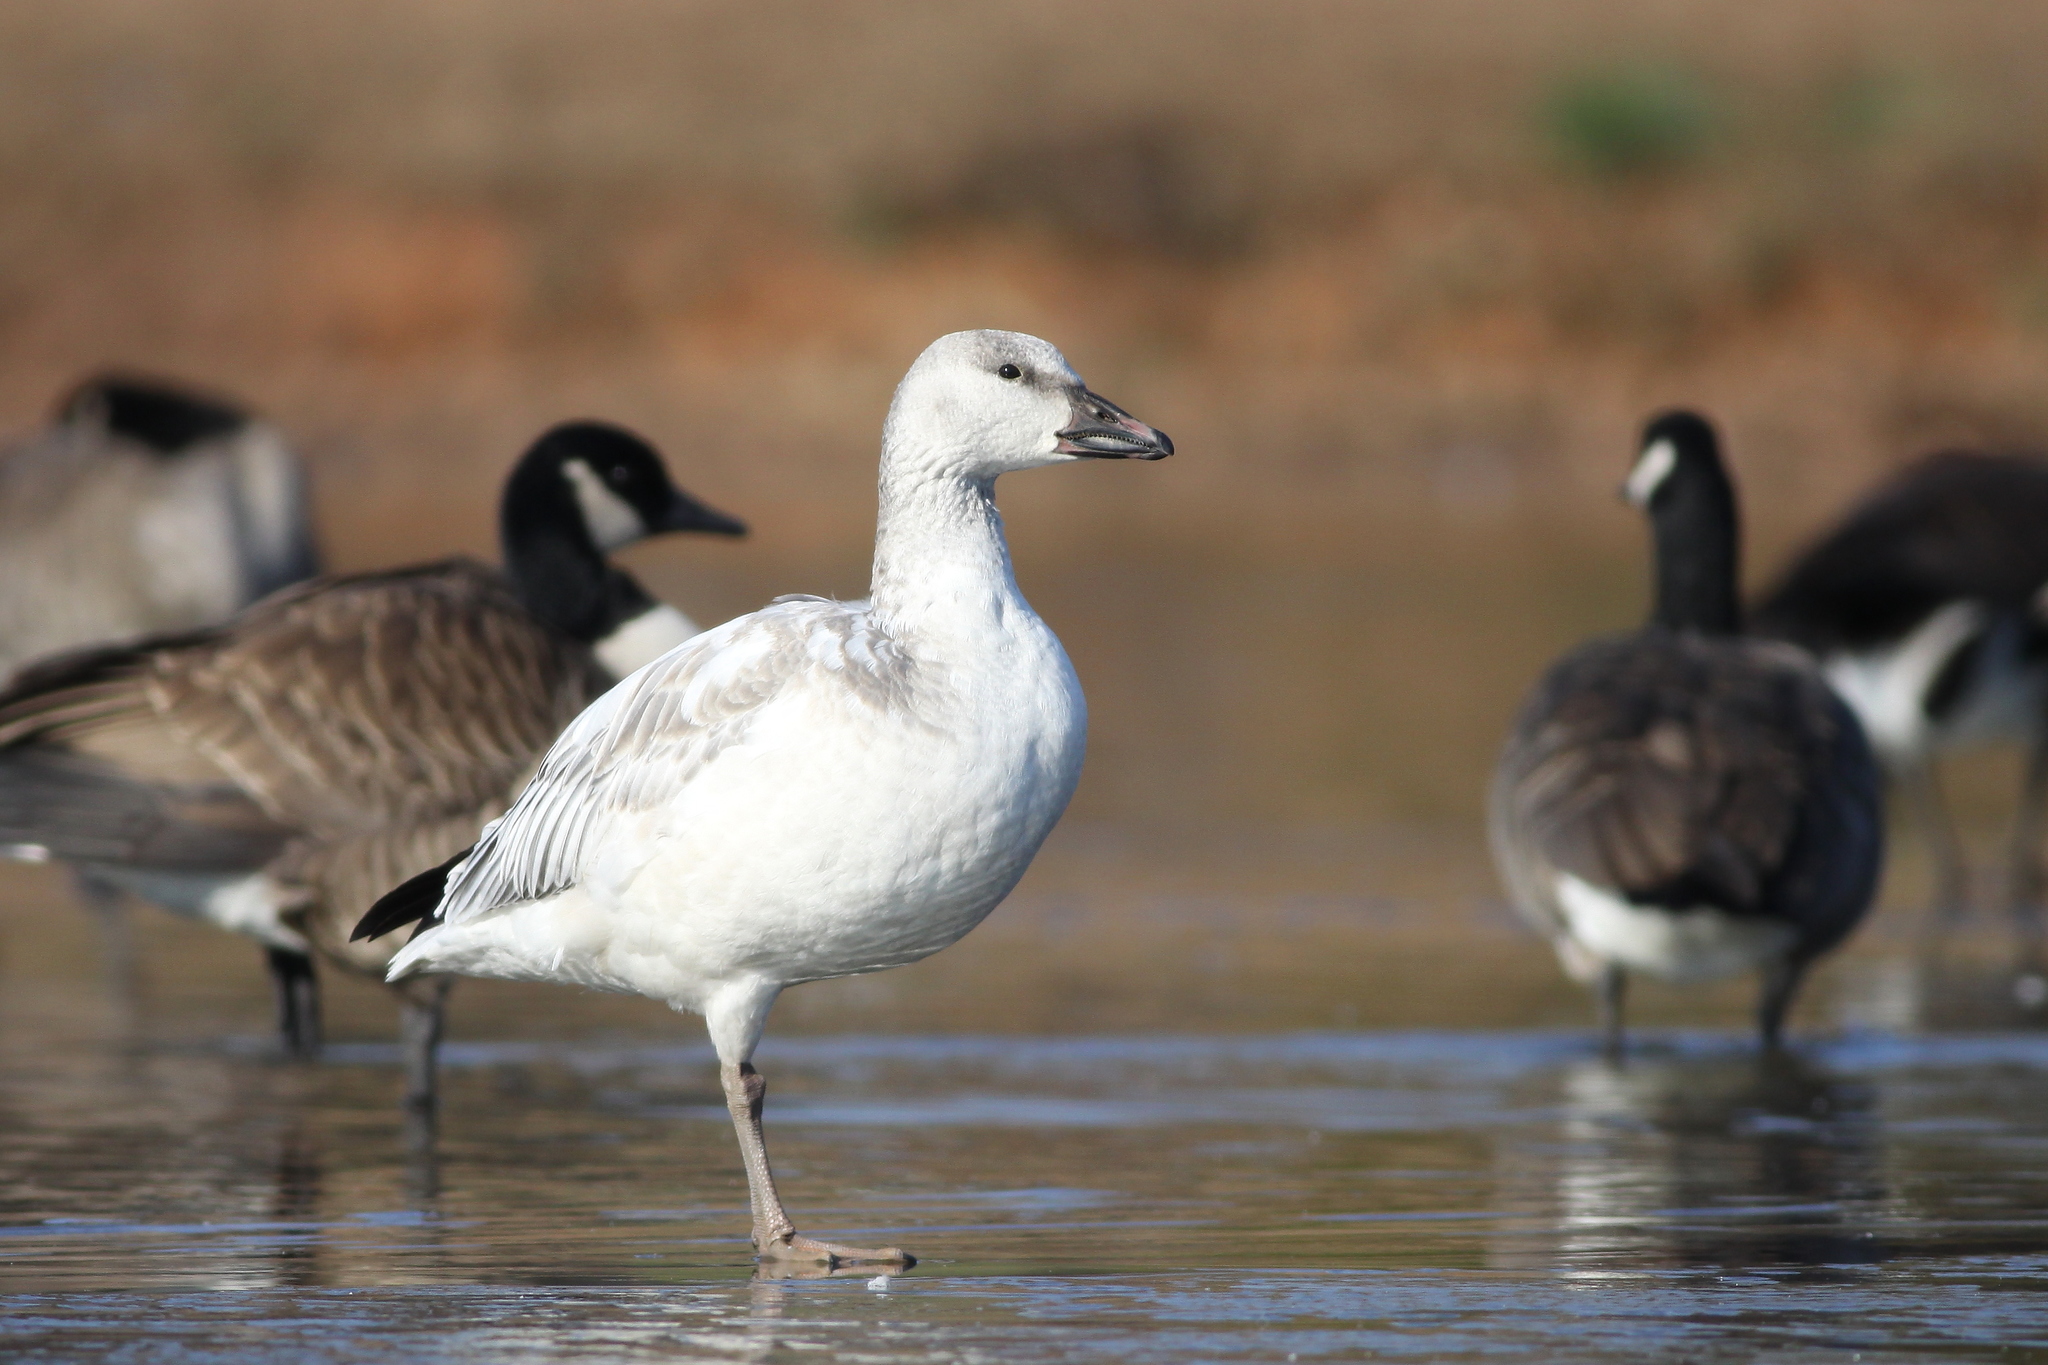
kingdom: Animalia
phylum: Chordata
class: Aves
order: Anseriformes
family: Anatidae
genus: Anser
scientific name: Anser caerulescens
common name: Snow goose
